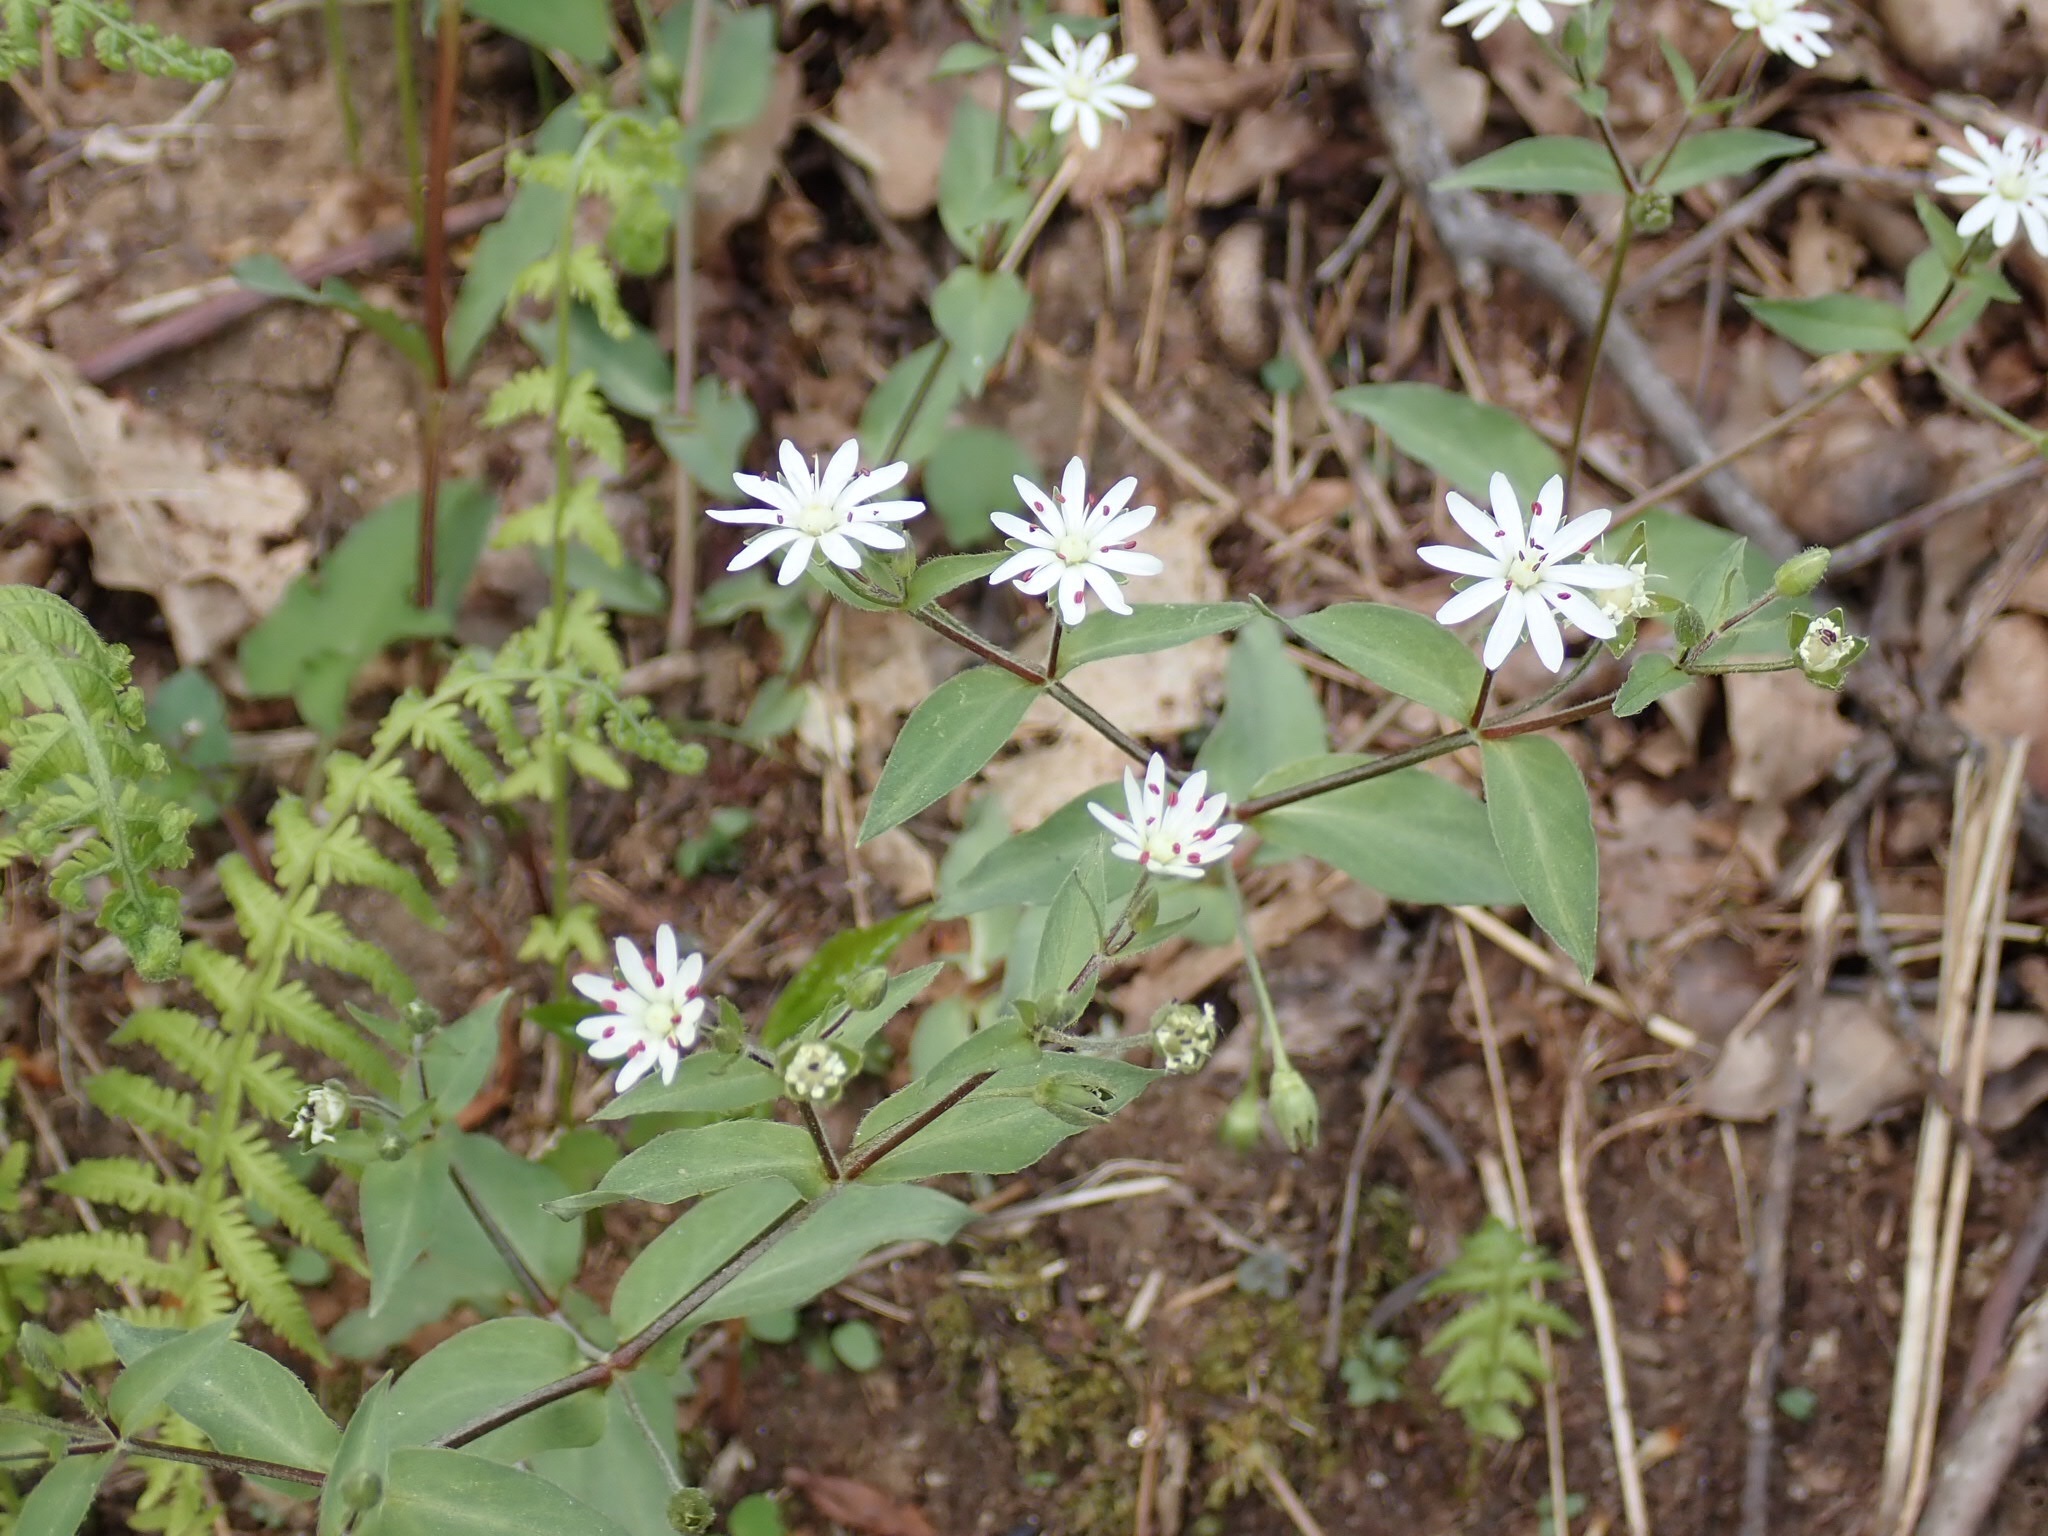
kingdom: Plantae
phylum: Tracheophyta
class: Magnoliopsida
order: Caryophyllales
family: Caryophyllaceae
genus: Stellaria
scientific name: Stellaria pubera
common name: Star chickweed
